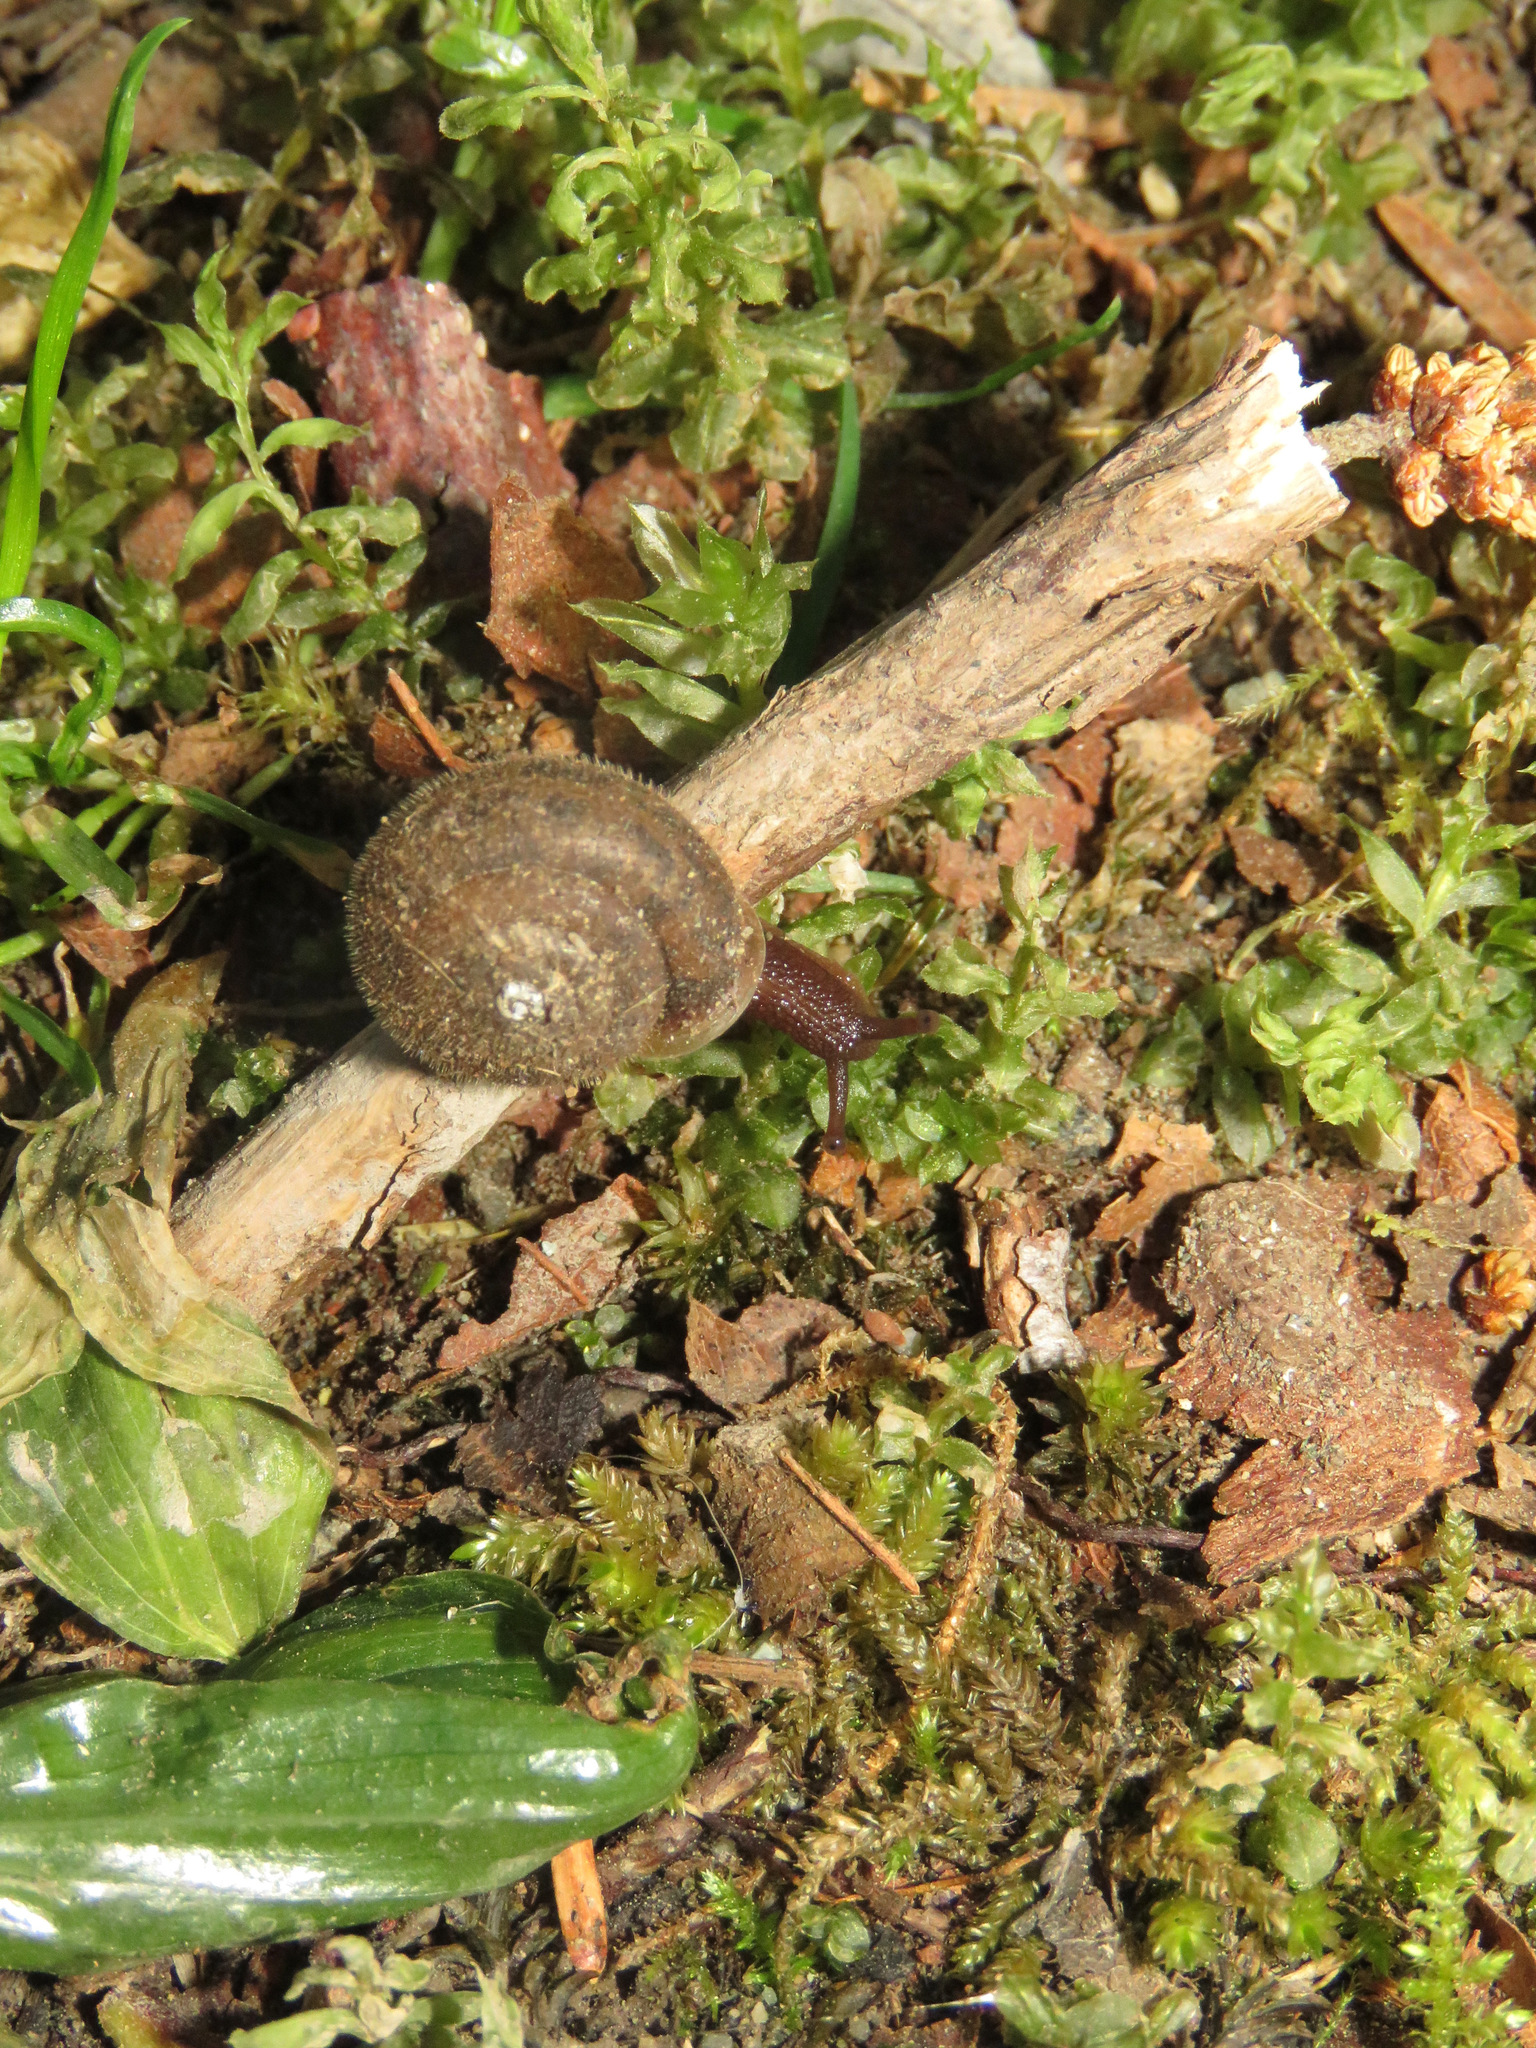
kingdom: Animalia
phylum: Mollusca
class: Gastropoda
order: Stylommatophora
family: Polygyridae
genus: Vespericola
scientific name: Vespericola columbianus
